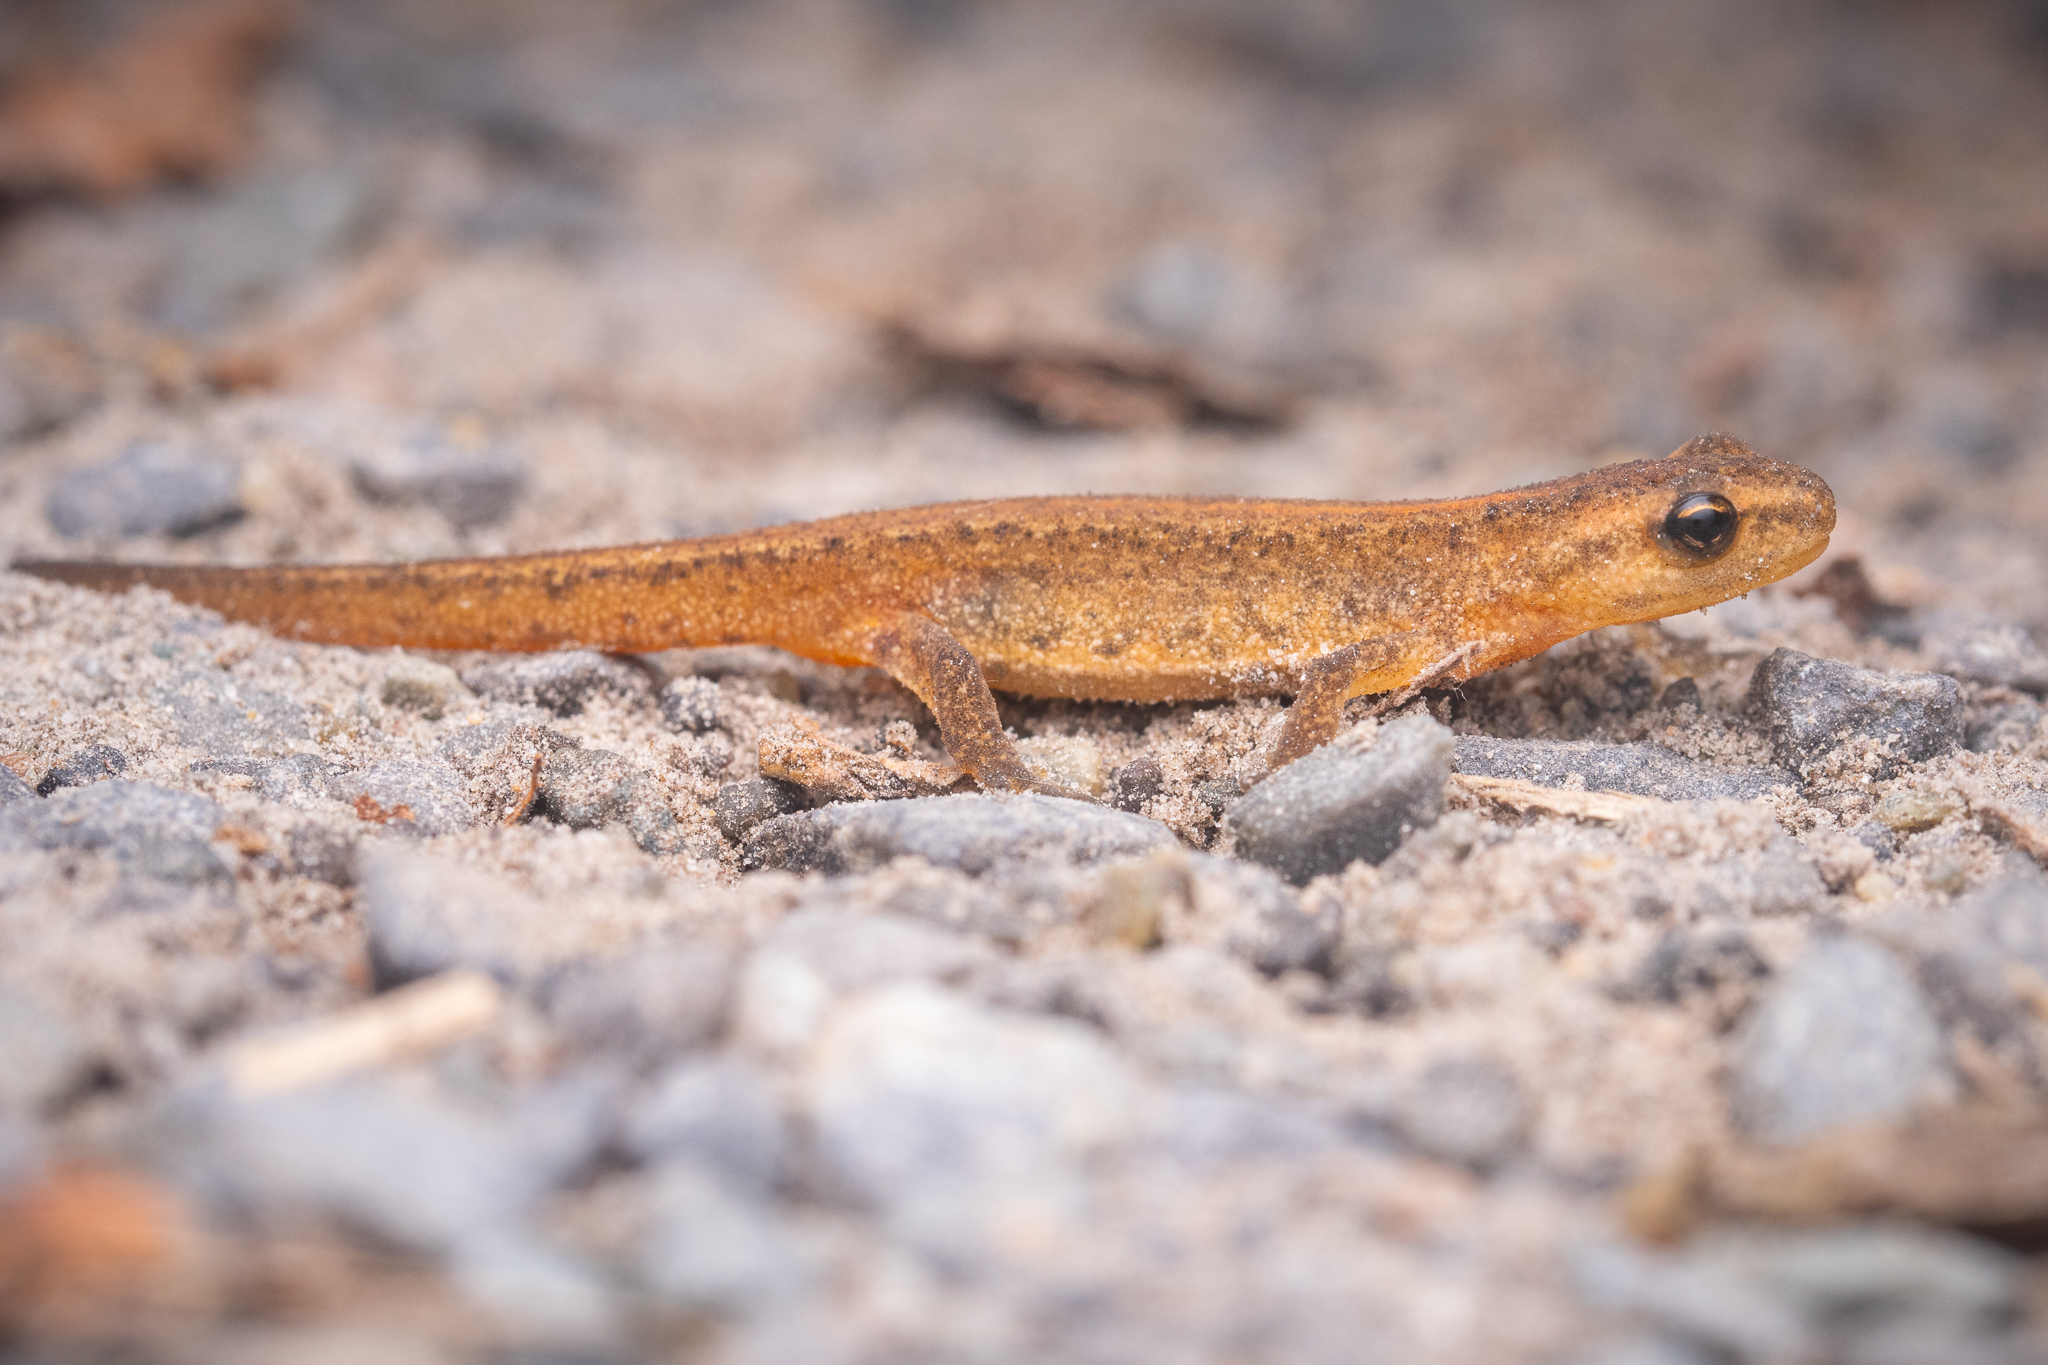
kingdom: Animalia
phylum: Chordata
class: Amphibia
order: Caudata
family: Salamandridae
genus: Lissotriton
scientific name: Lissotriton vulgaris
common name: Smooth newt
